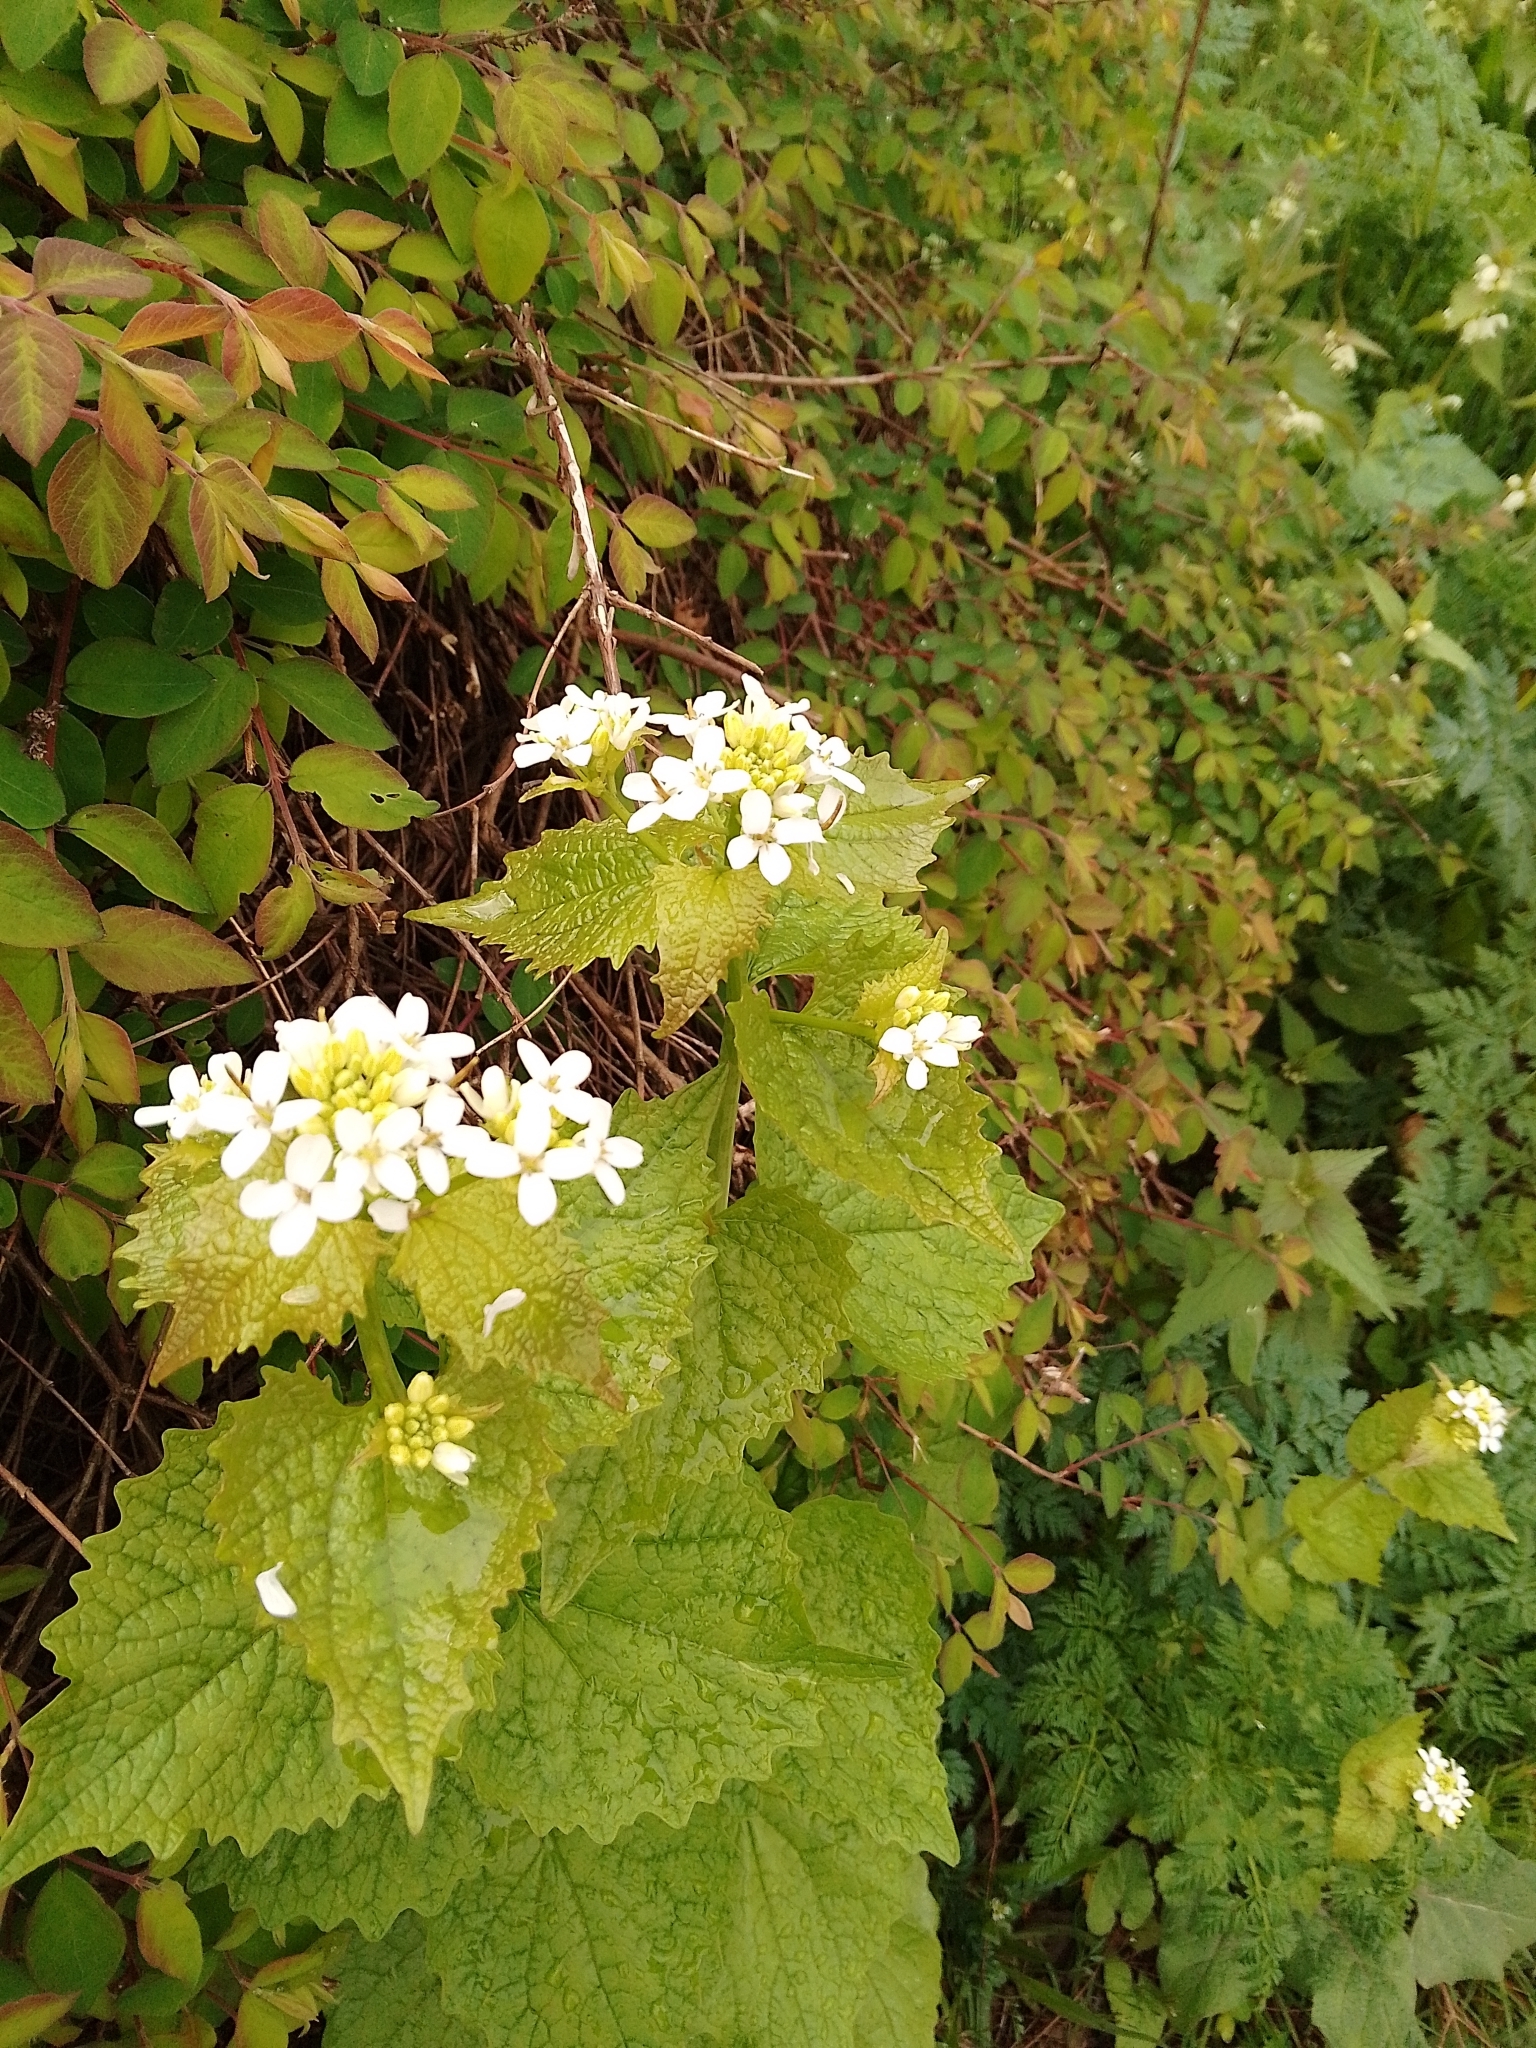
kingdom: Plantae
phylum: Tracheophyta
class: Magnoliopsida
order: Brassicales
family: Brassicaceae
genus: Alliaria
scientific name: Alliaria petiolata
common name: Garlic mustard
